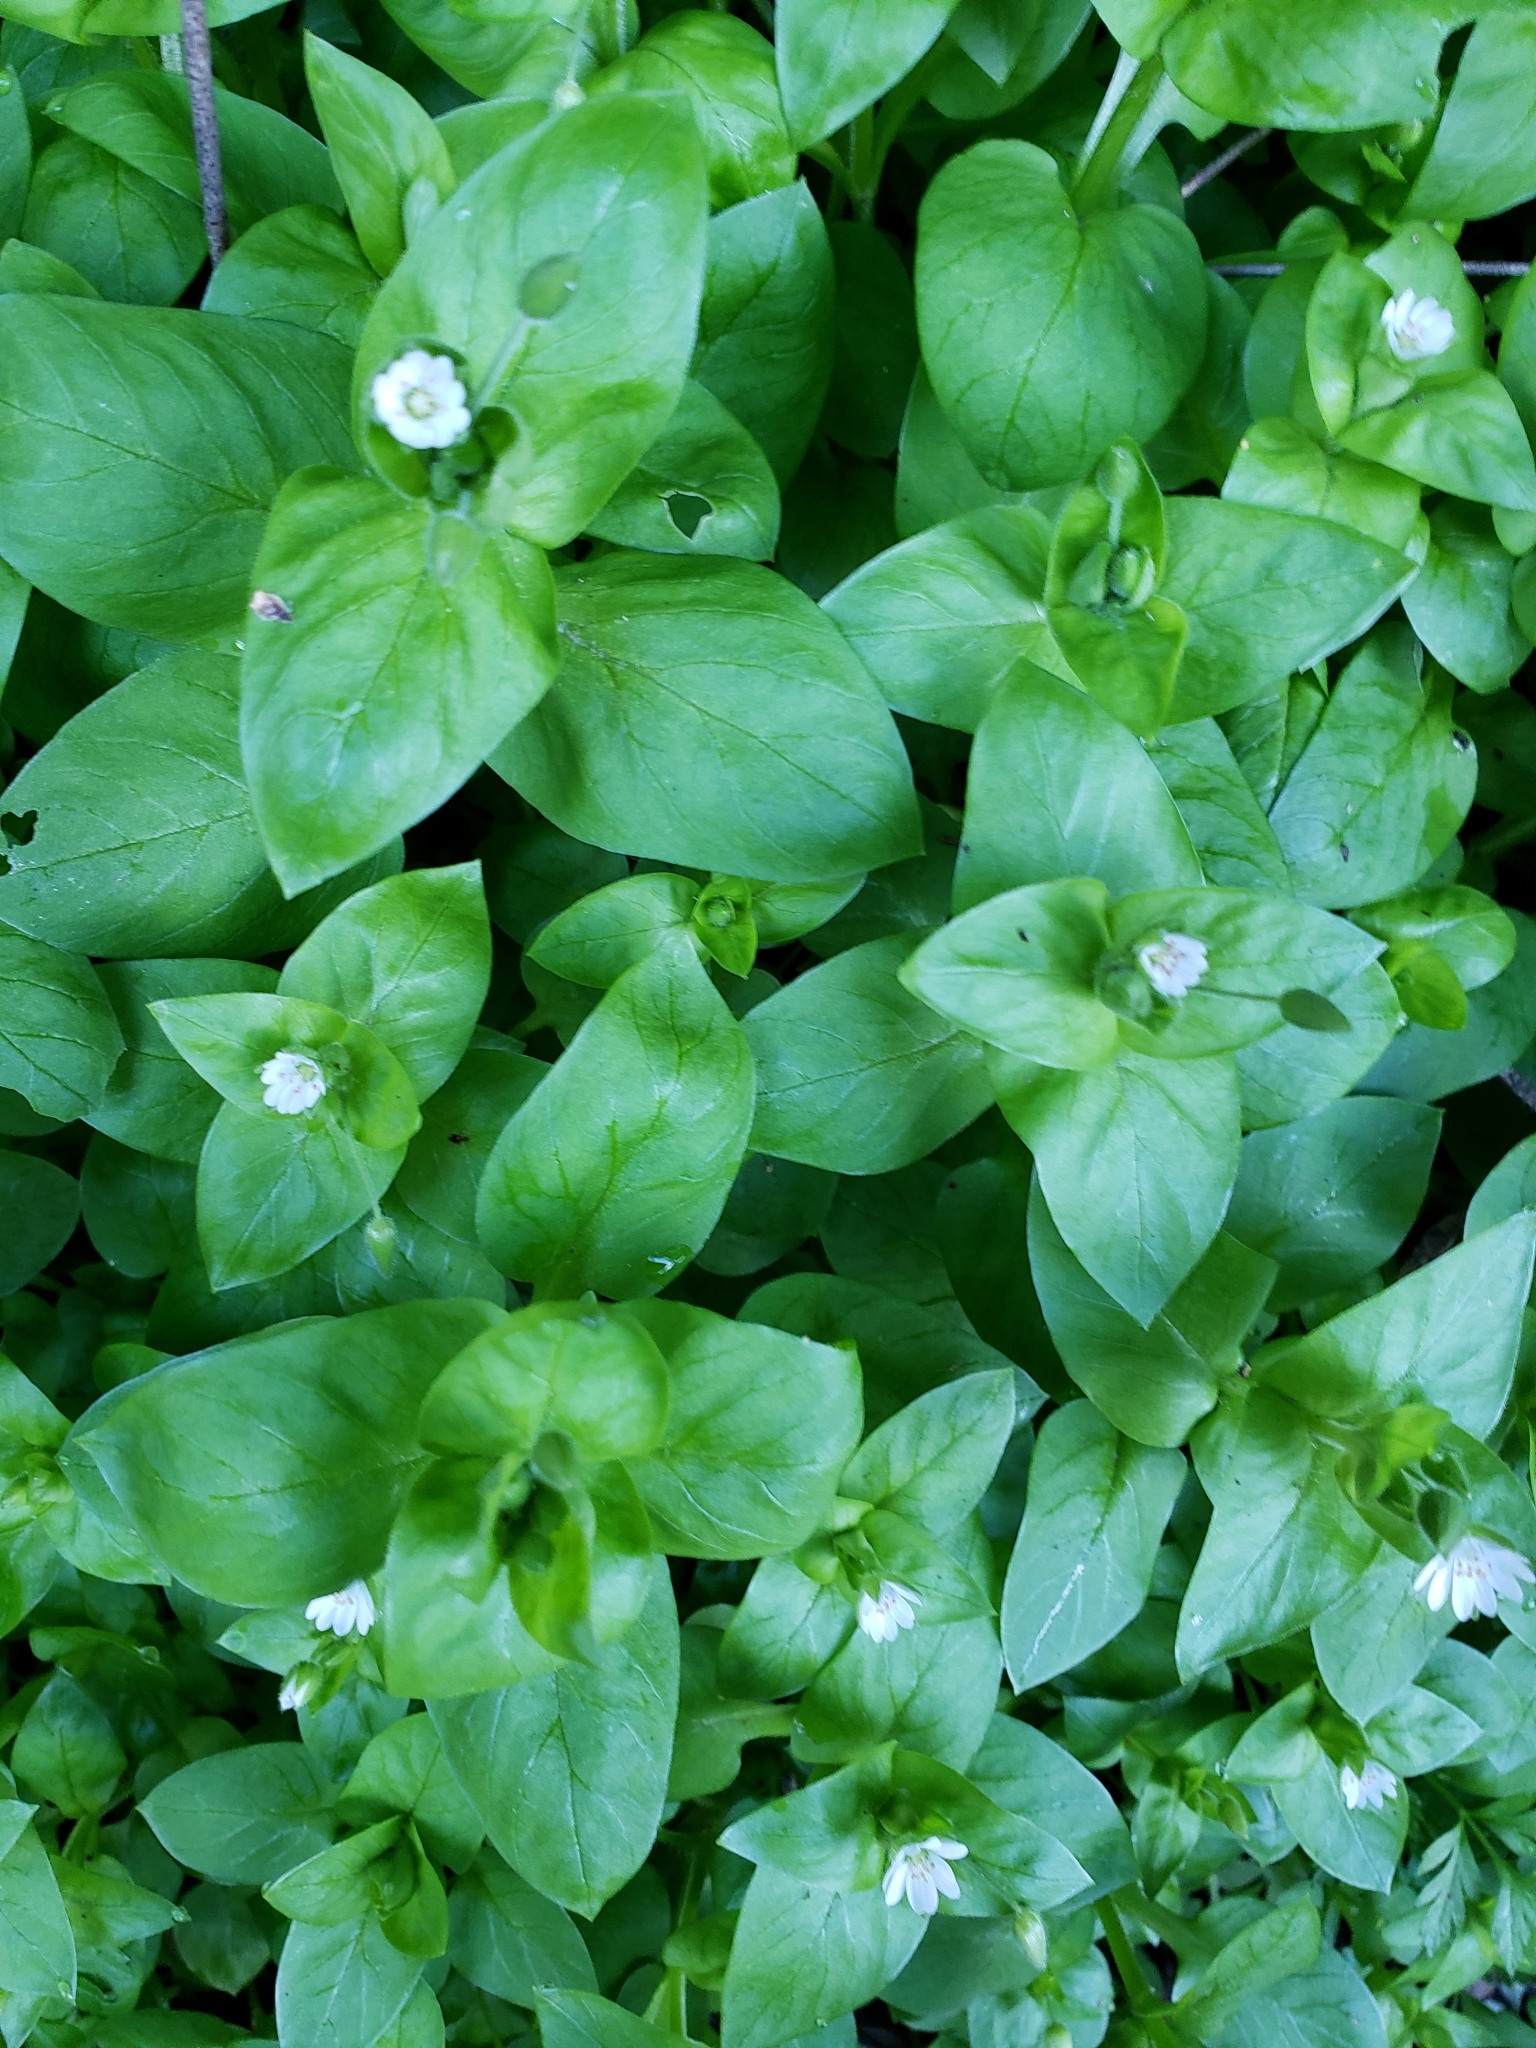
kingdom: Plantae
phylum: Tracheophyta
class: Magnoliopsida
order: Caryophyllales
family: Caryophyllaceae
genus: Stellaria
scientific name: Stellaria media
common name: Common chickweed
